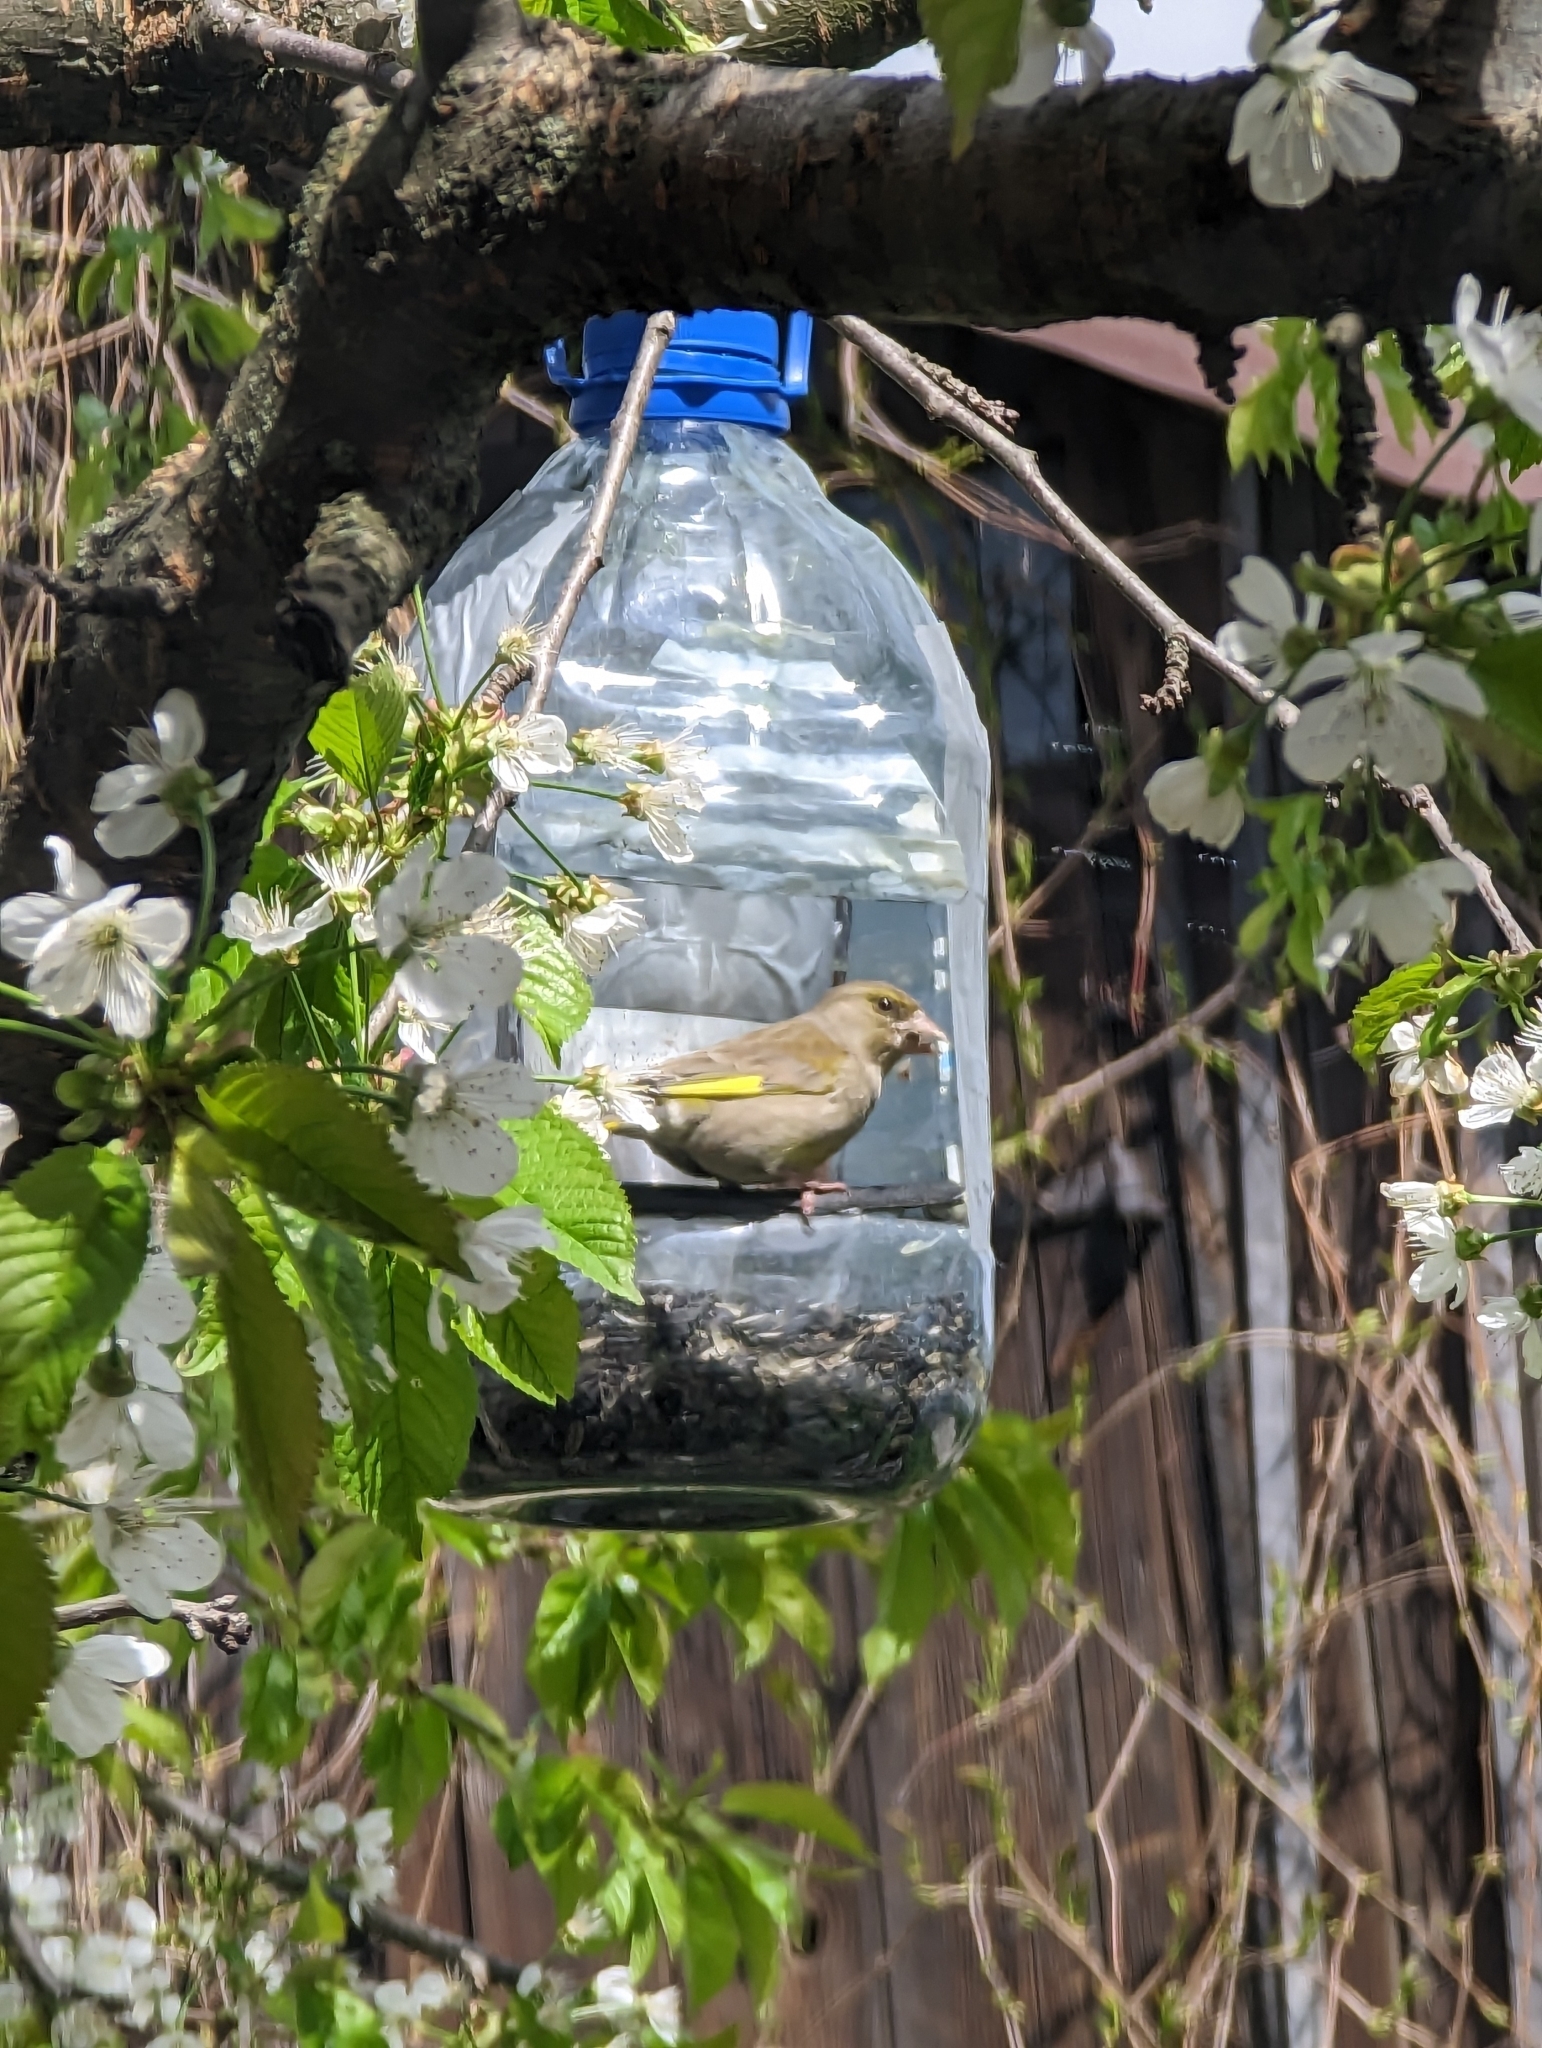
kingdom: Plantae
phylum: Tracheophyta
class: Liliopsida
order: Poales
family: Poaceae
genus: Chloris
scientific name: Chloris chloris
